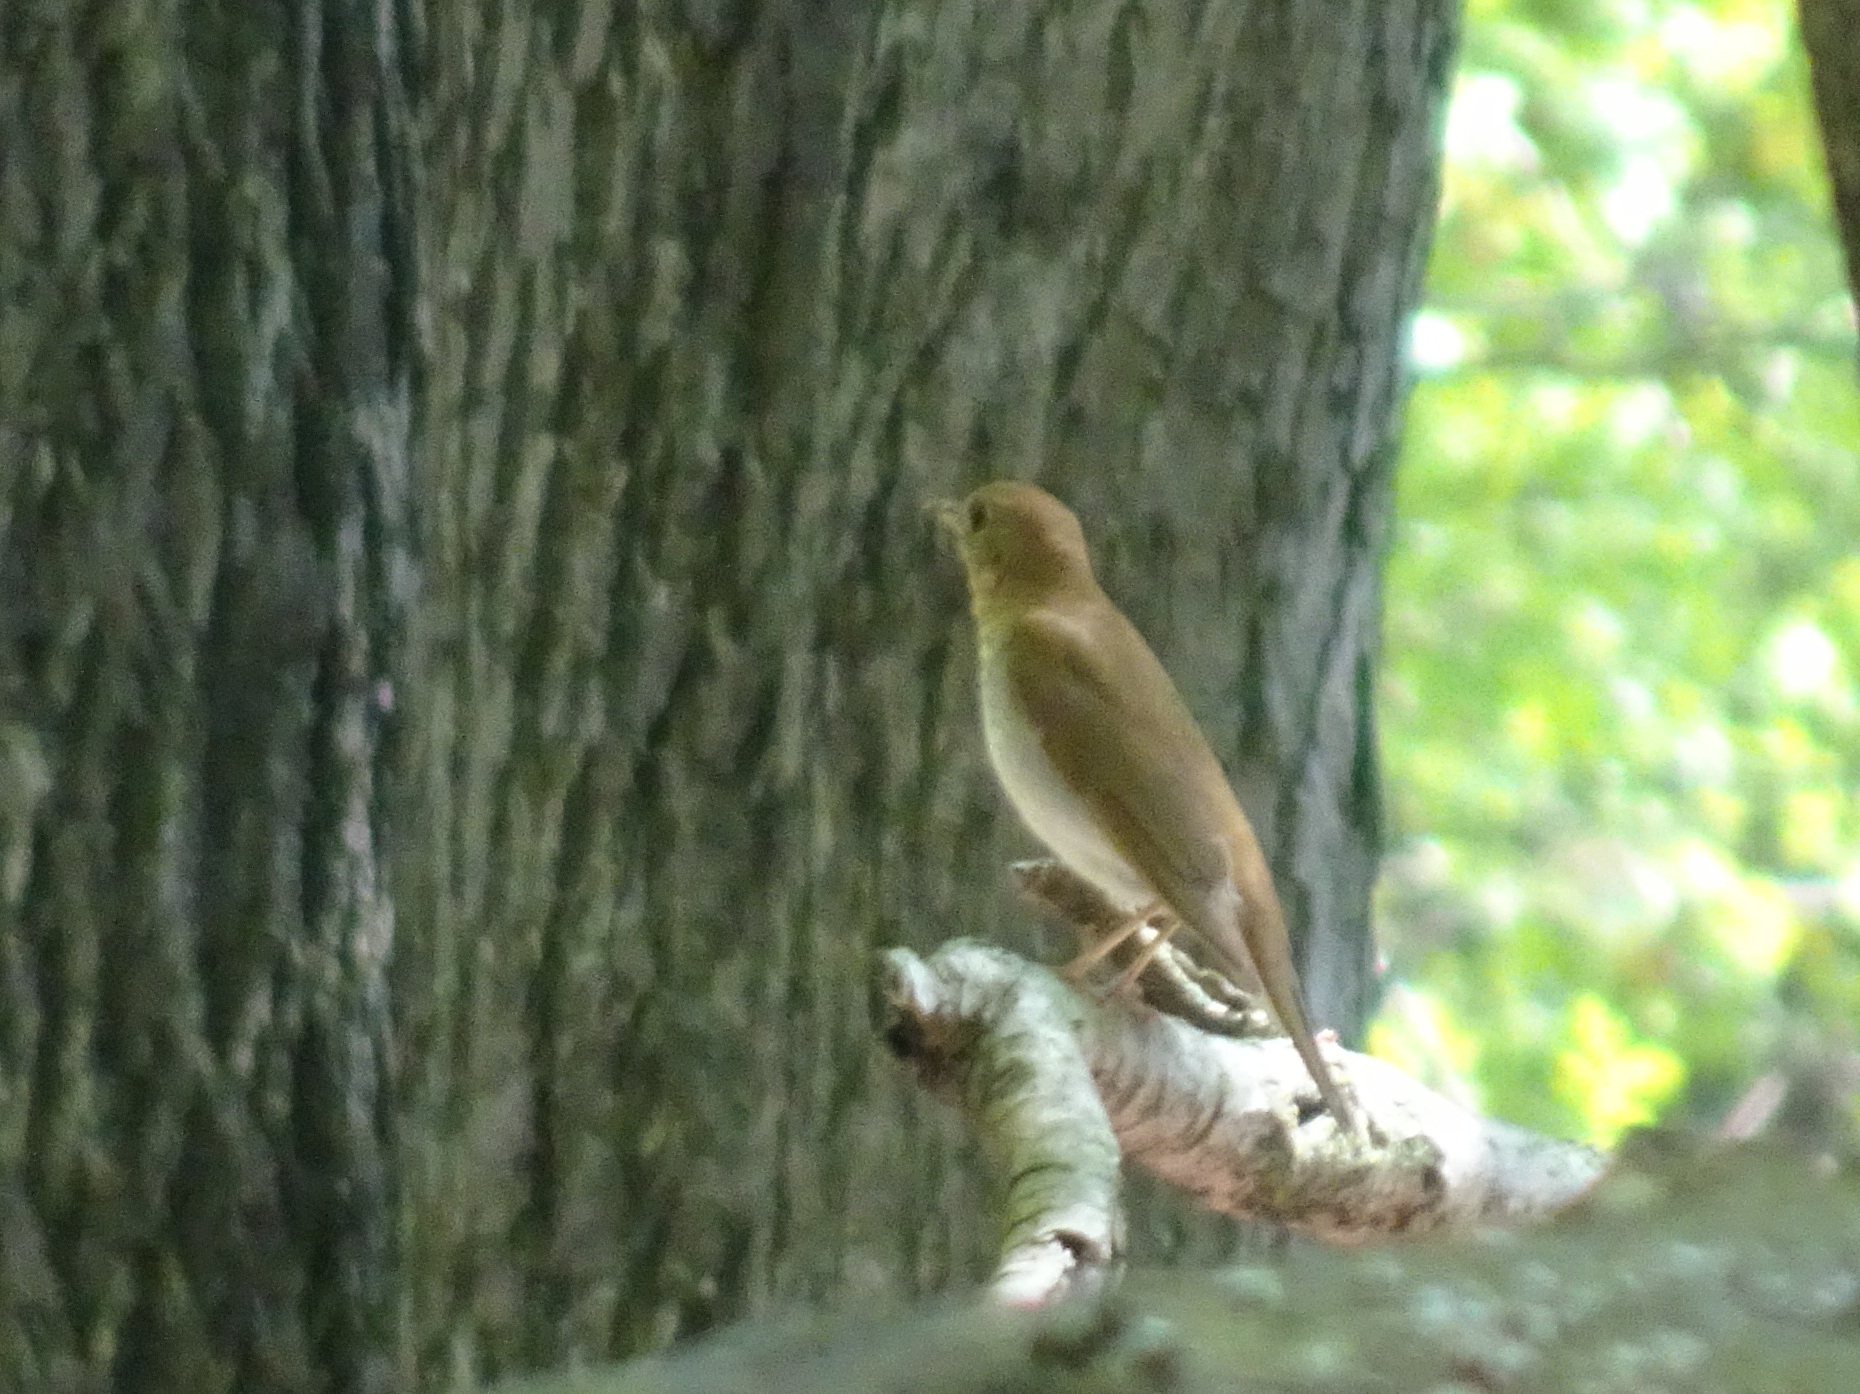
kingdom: Animalia
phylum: Chordata
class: Aves
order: Passeriformes
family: Turdidae
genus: Catharus
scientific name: Catharus fuscescens
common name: Veery
